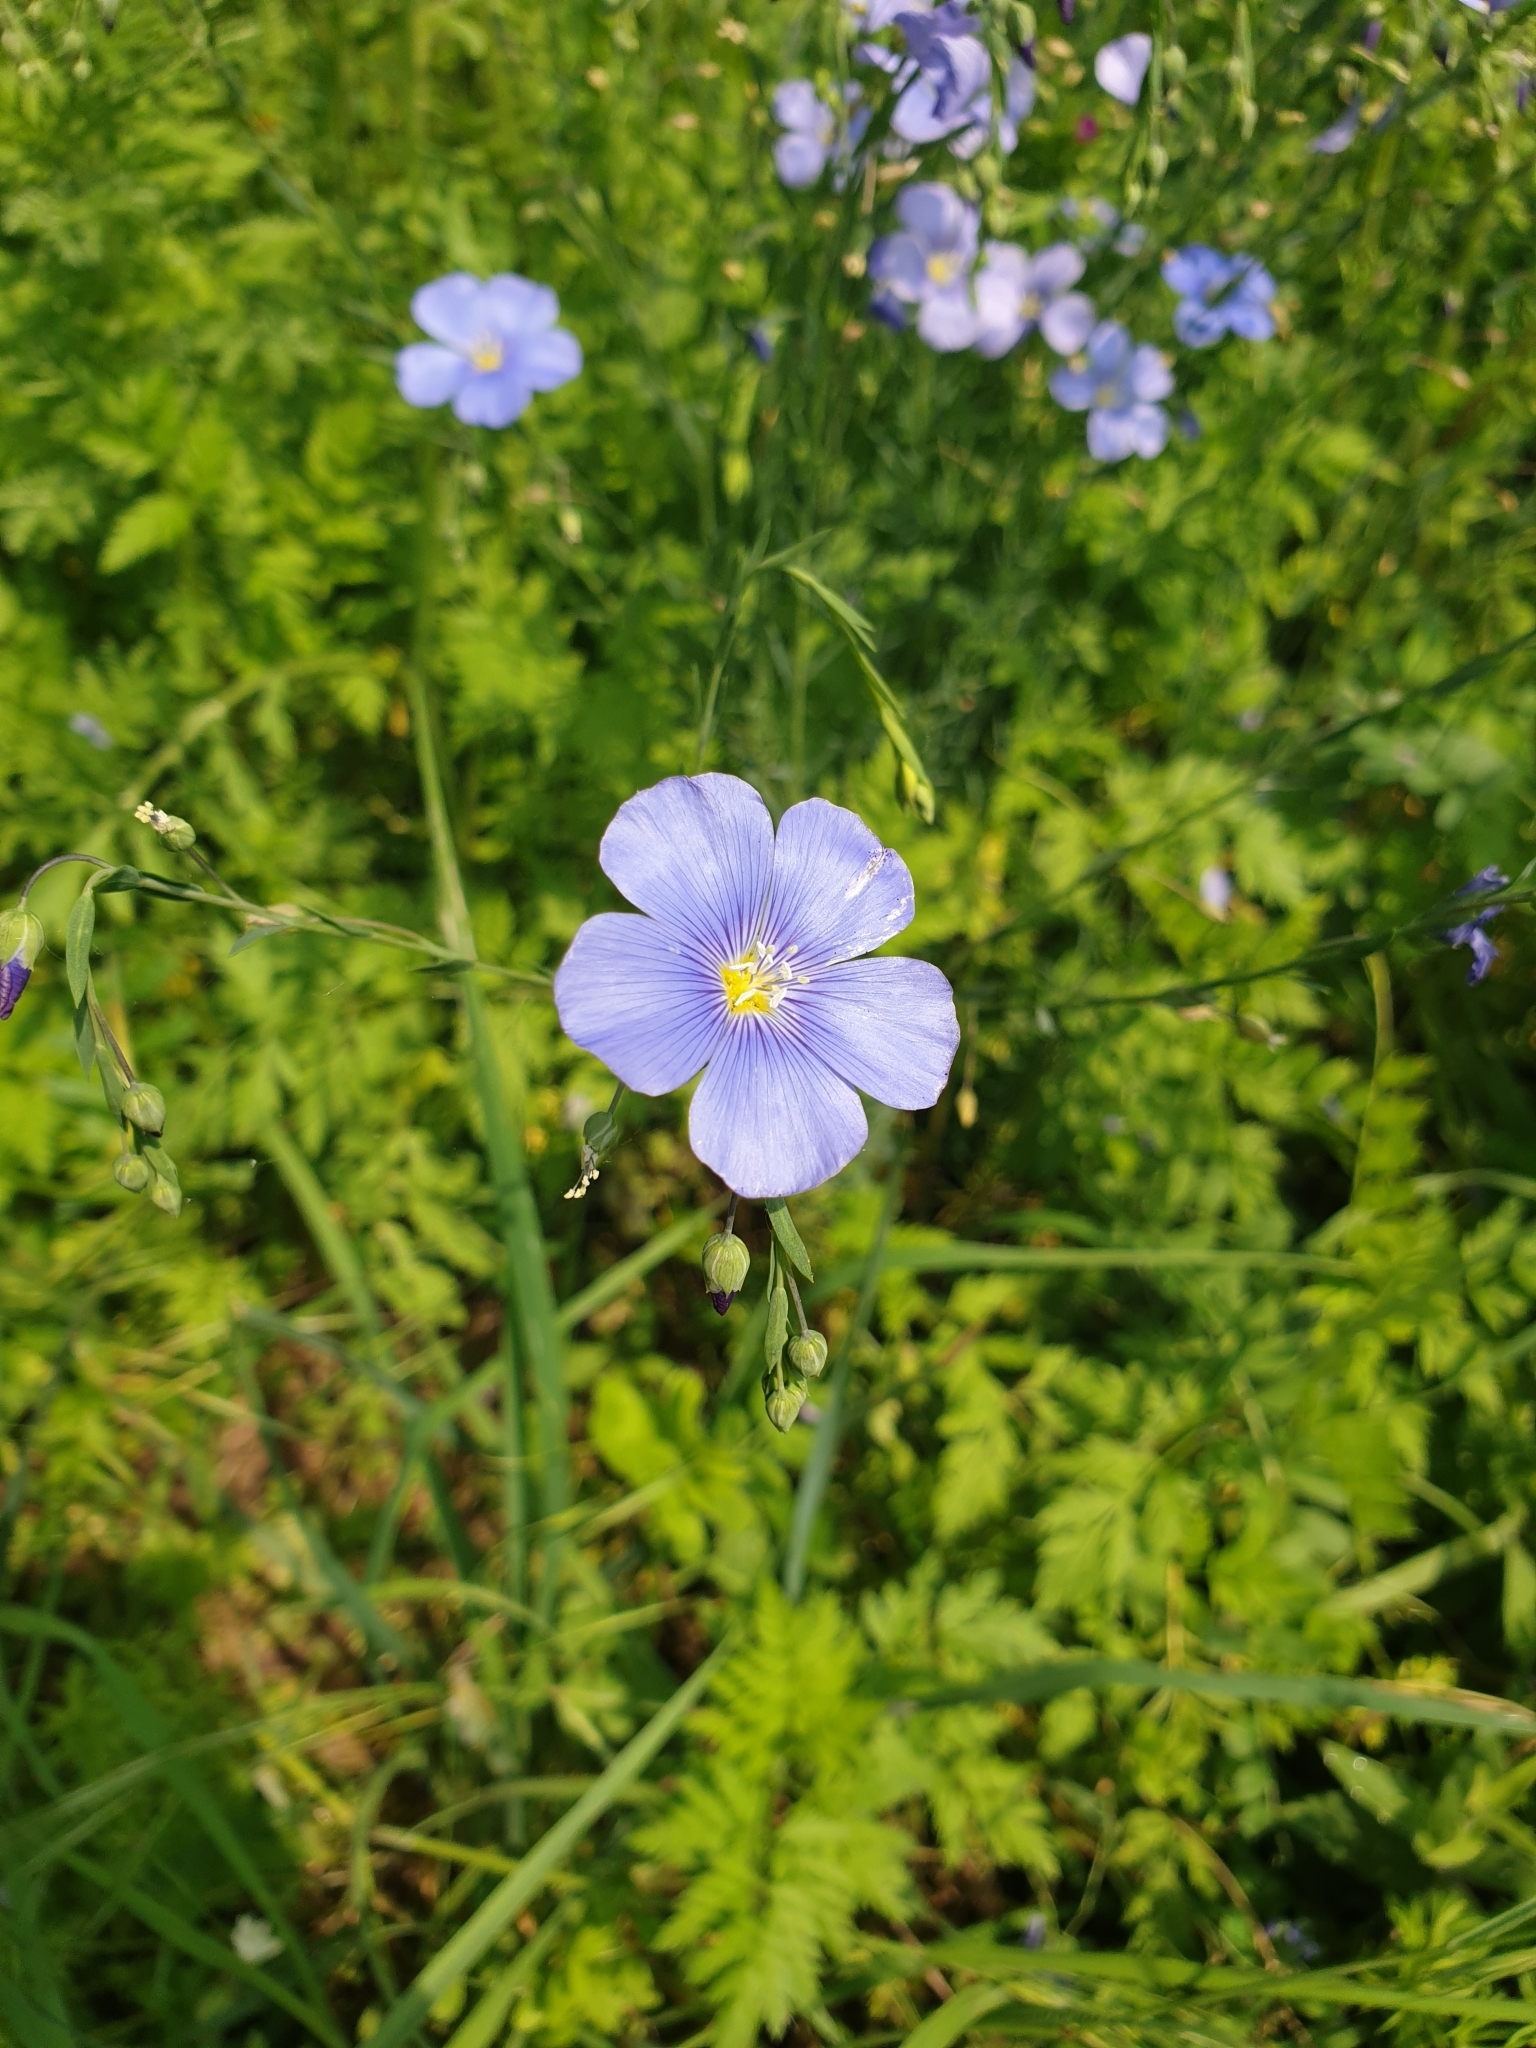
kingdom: Plantae
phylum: Tracheophyta
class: Magnoliopsida
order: Malpighiales
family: Linaceae
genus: Linum
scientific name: Linum perenne
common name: Blue flax
